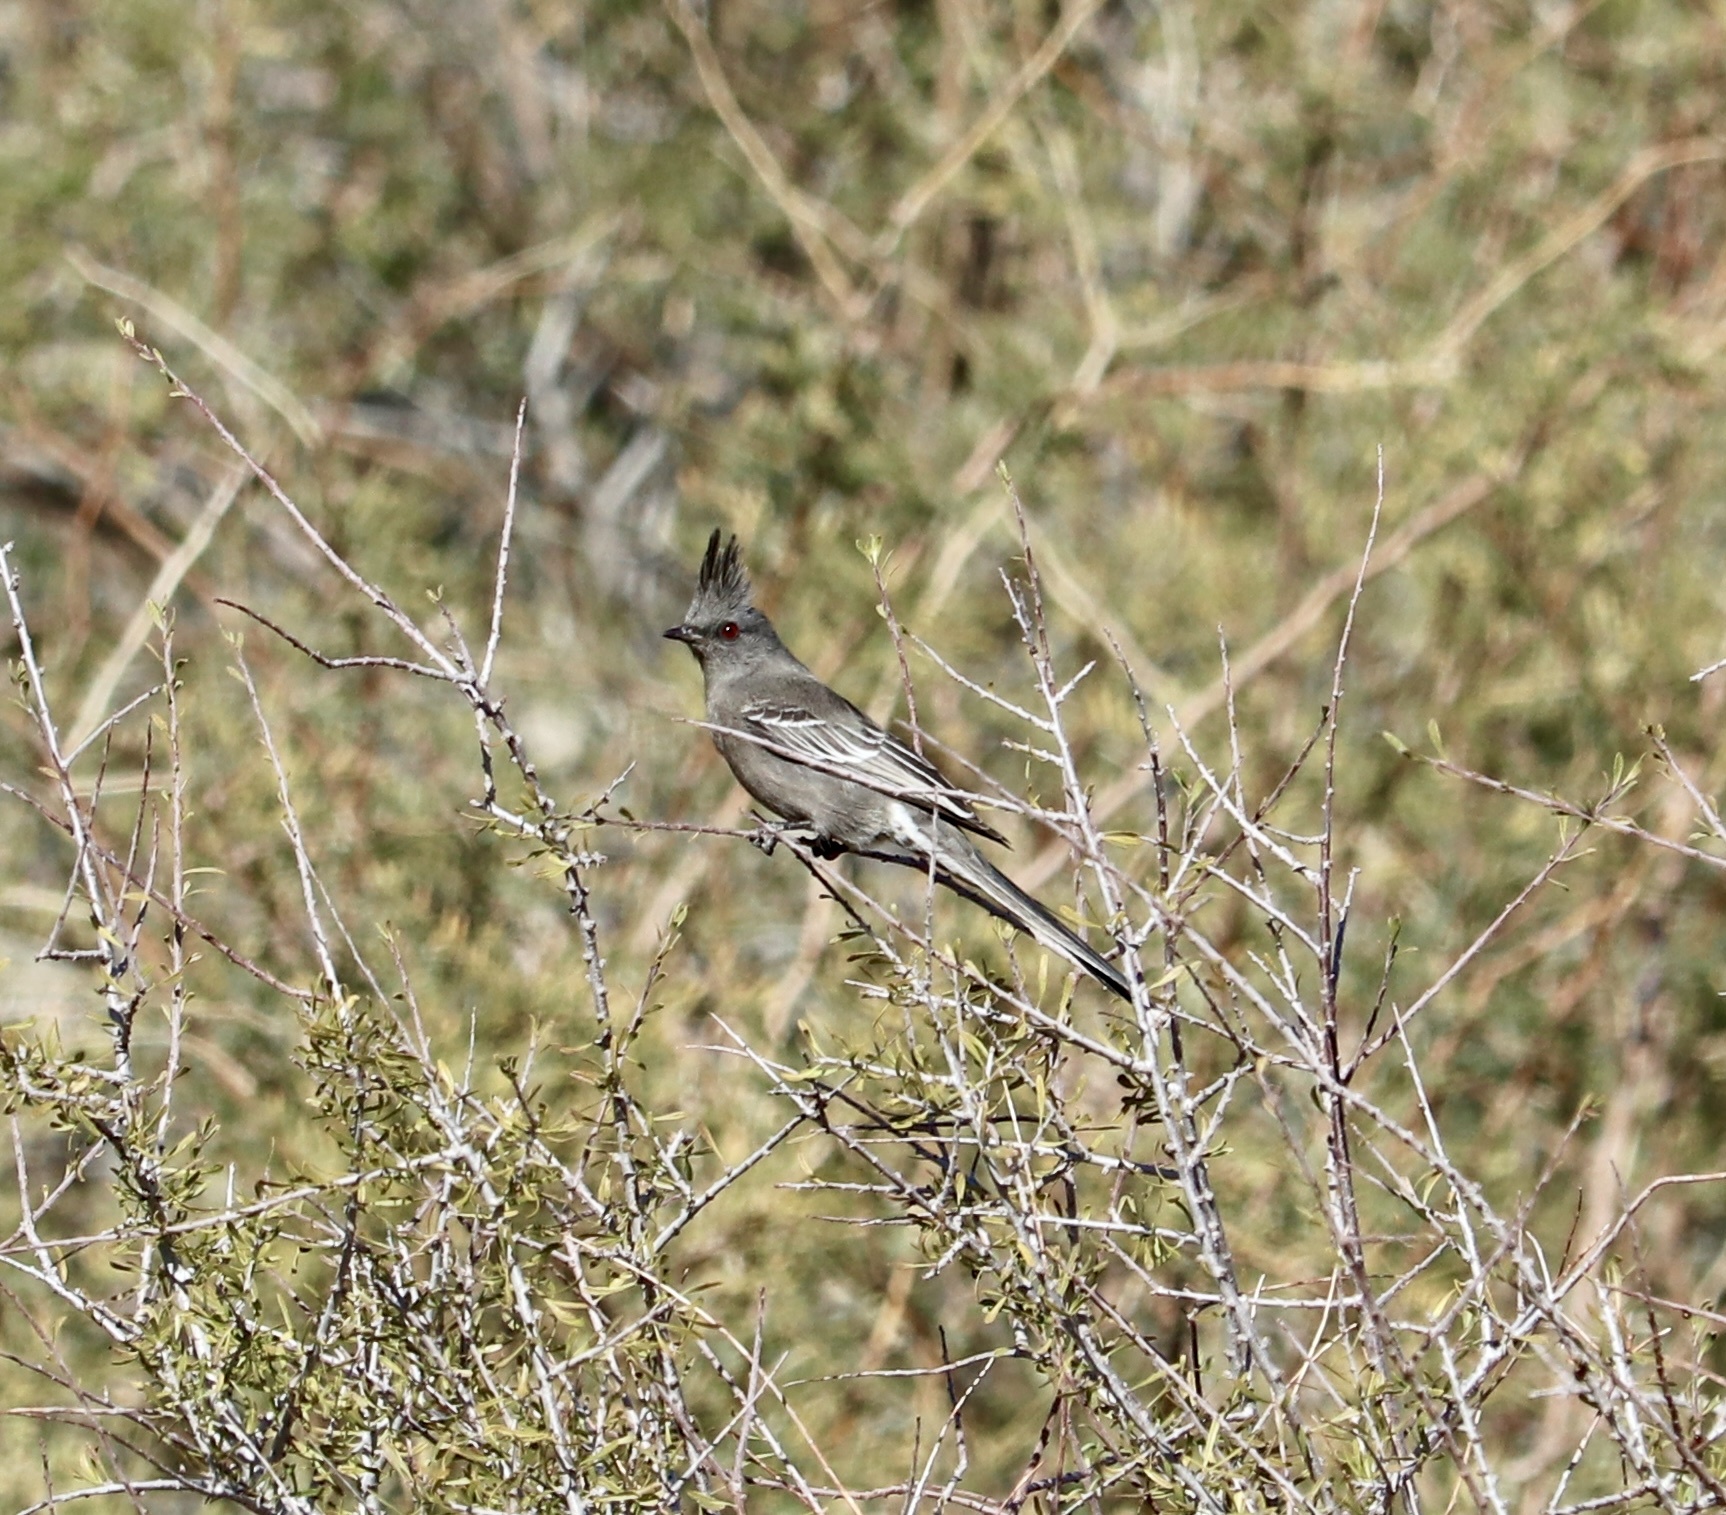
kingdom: Animalia
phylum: Chordata
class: Aves
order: Passeriformes
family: Ptilogonatidae
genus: Phainopepla
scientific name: Phainopepla nitens
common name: Phainopepla
